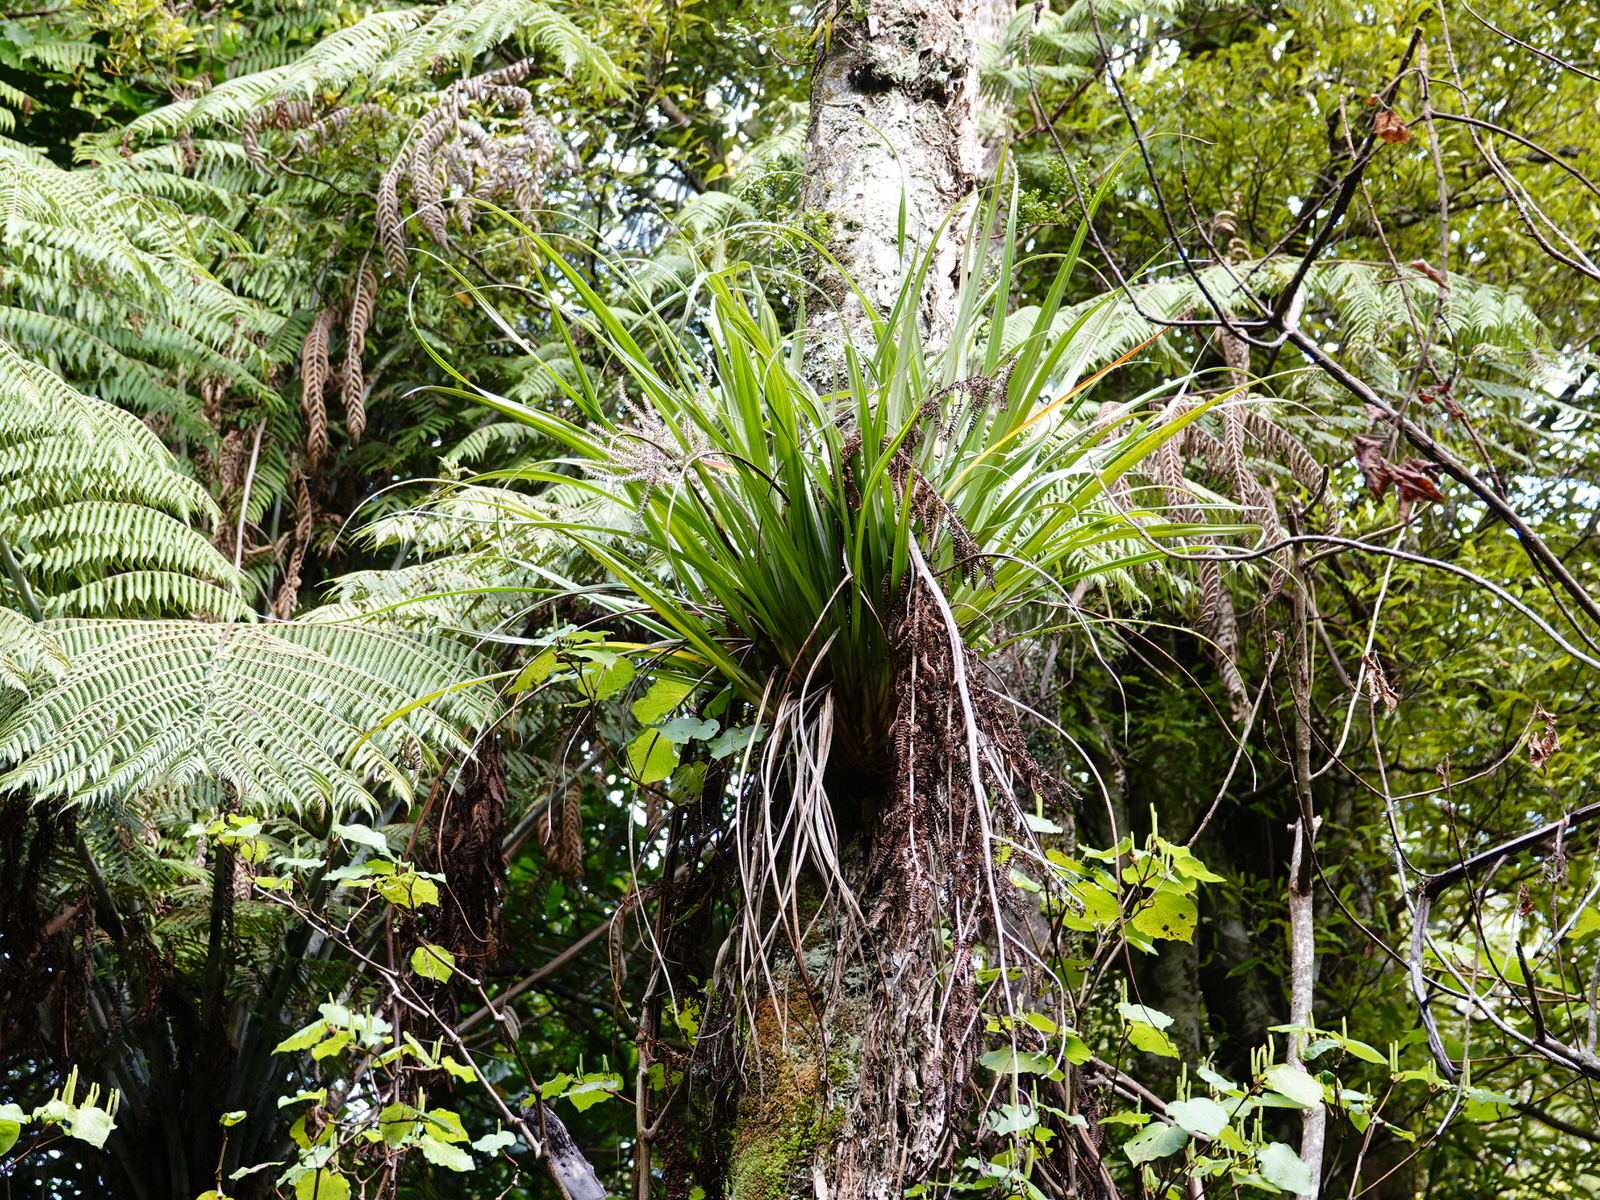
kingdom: Plantae
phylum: Tracheophyta
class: Liliopsida
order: Asparagales
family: Asteliaceae
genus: Astelia
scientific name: Astelia solandri
